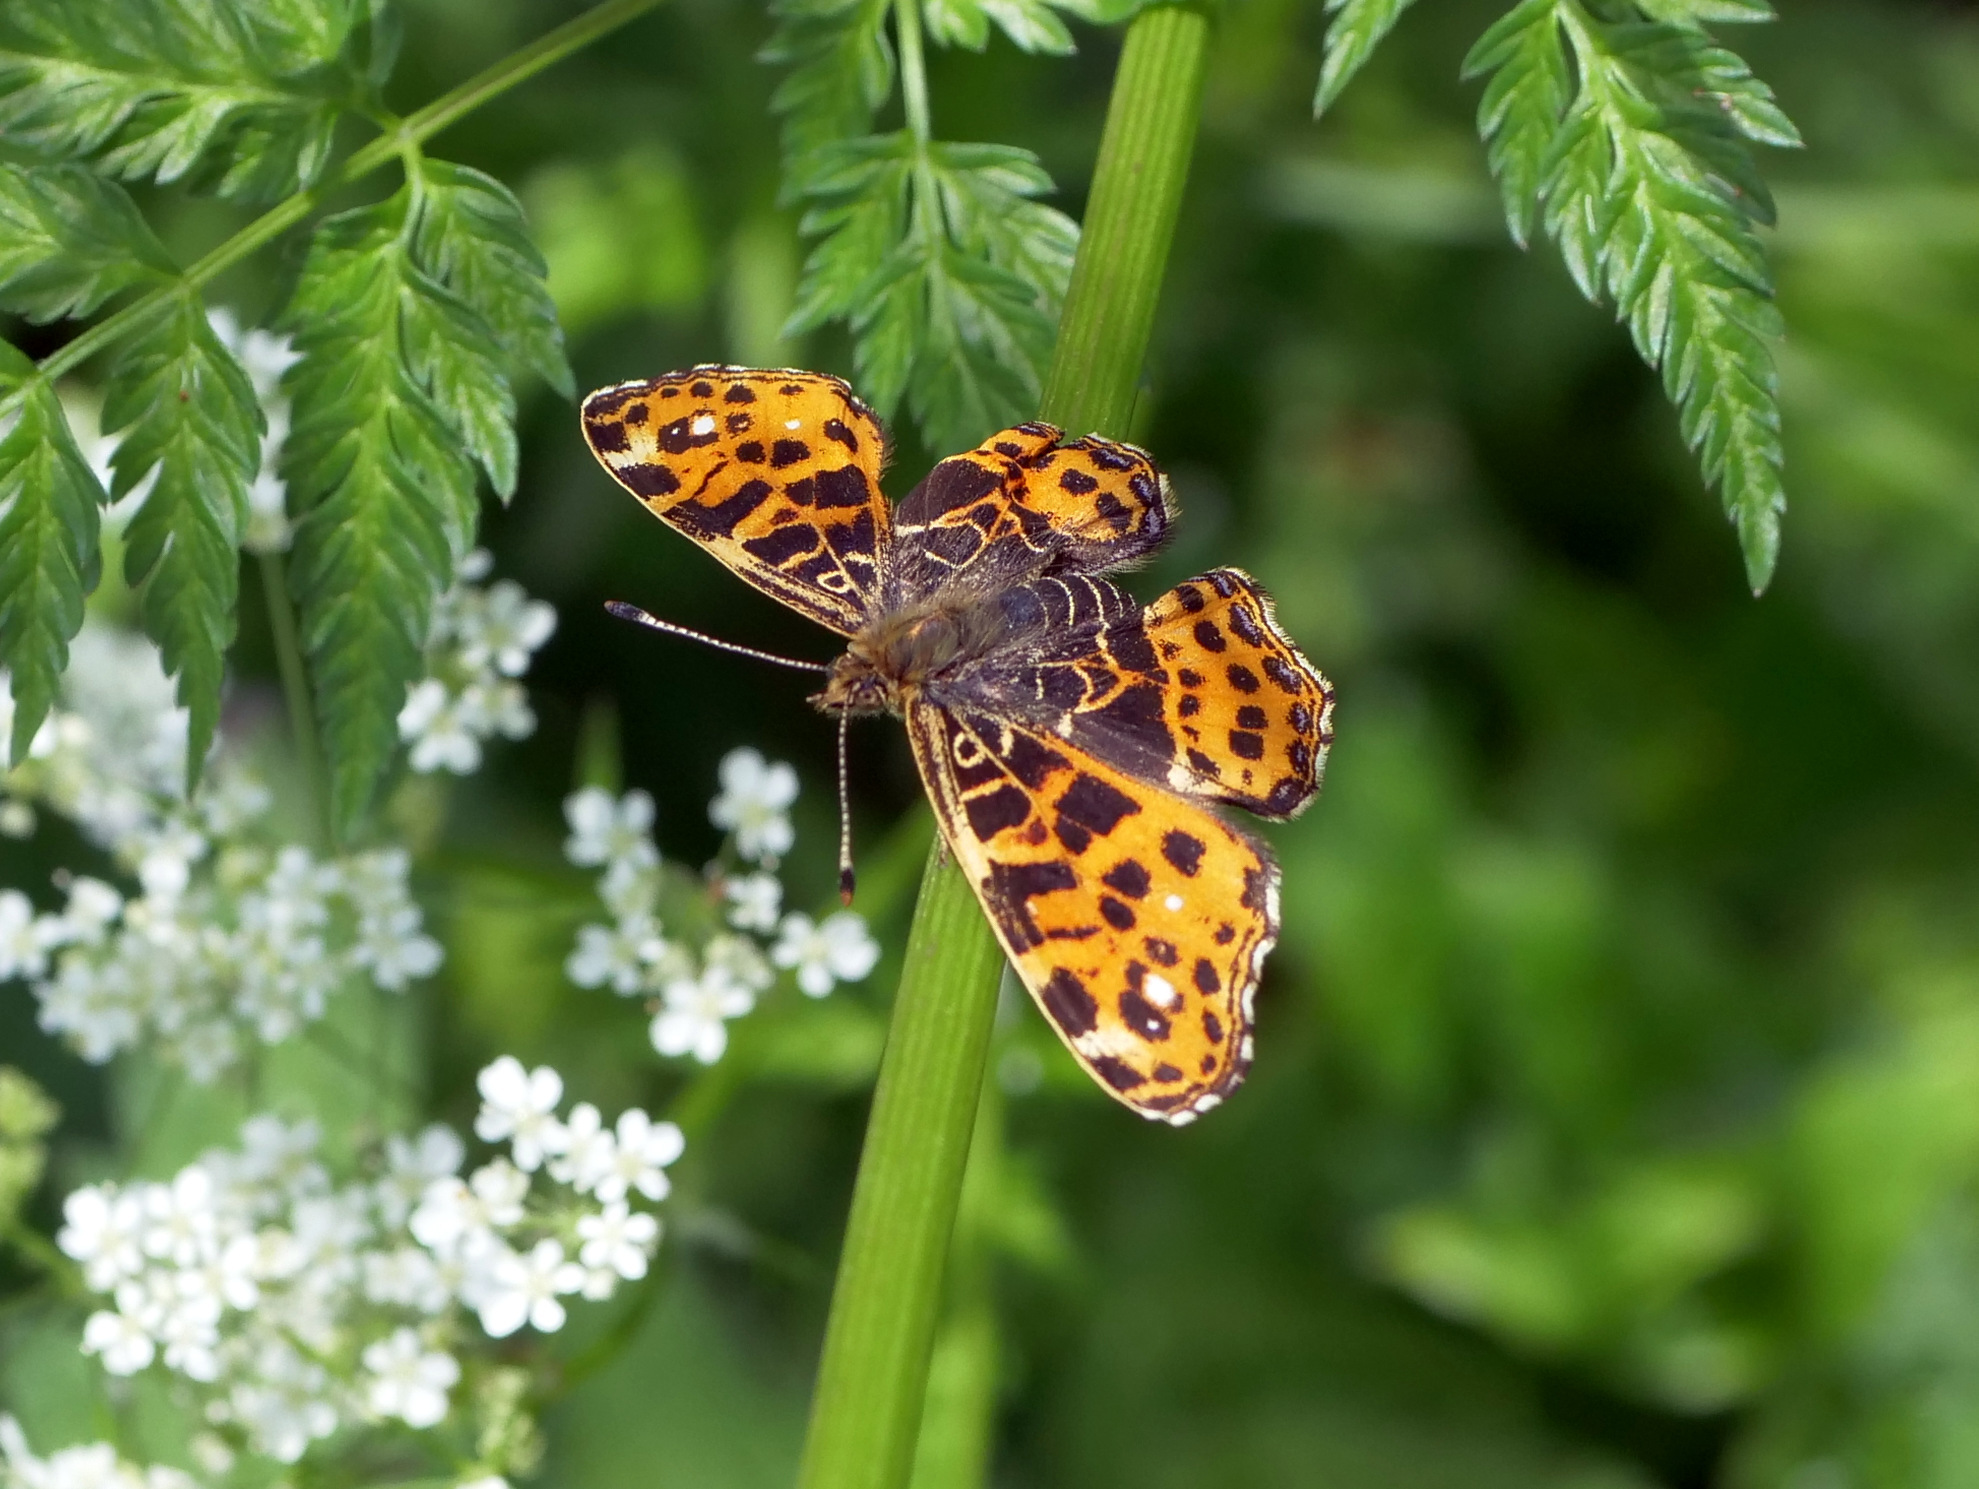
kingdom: Animalia
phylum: Arthropoda
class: Insecta
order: Lepidoptera
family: Nymphalidae
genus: Araschnia
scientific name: Araschnia levana
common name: Map butterfly
